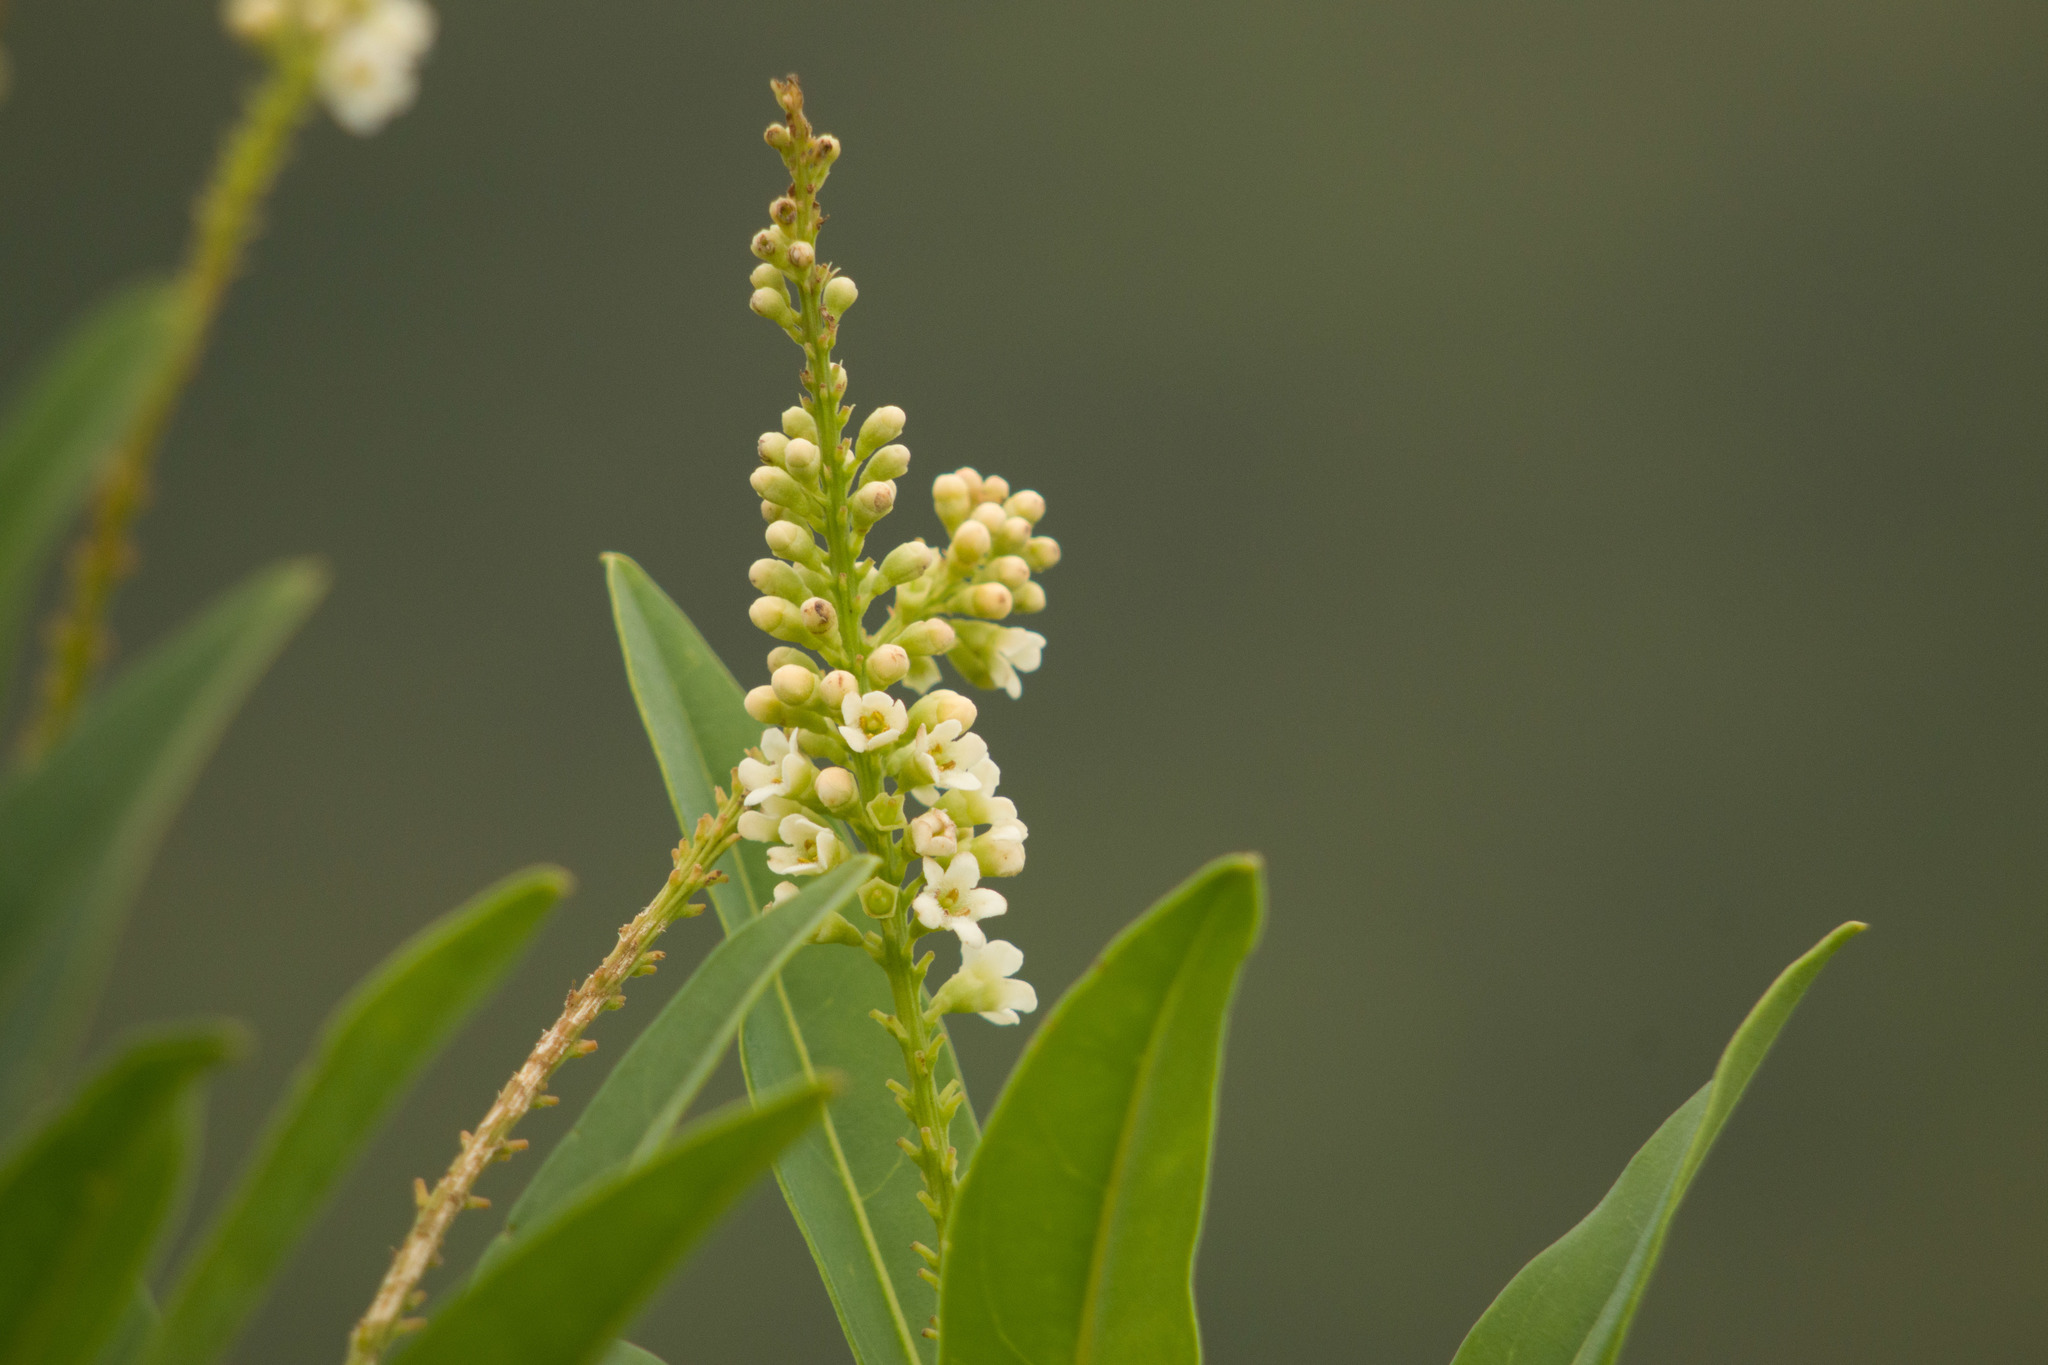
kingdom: Plantae
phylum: Tracheophyta
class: Magnoliopsida
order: Lamiales
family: Verbenaceae
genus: Citharexylum
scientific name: Citharexylum caudatum
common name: Fiddlewood
